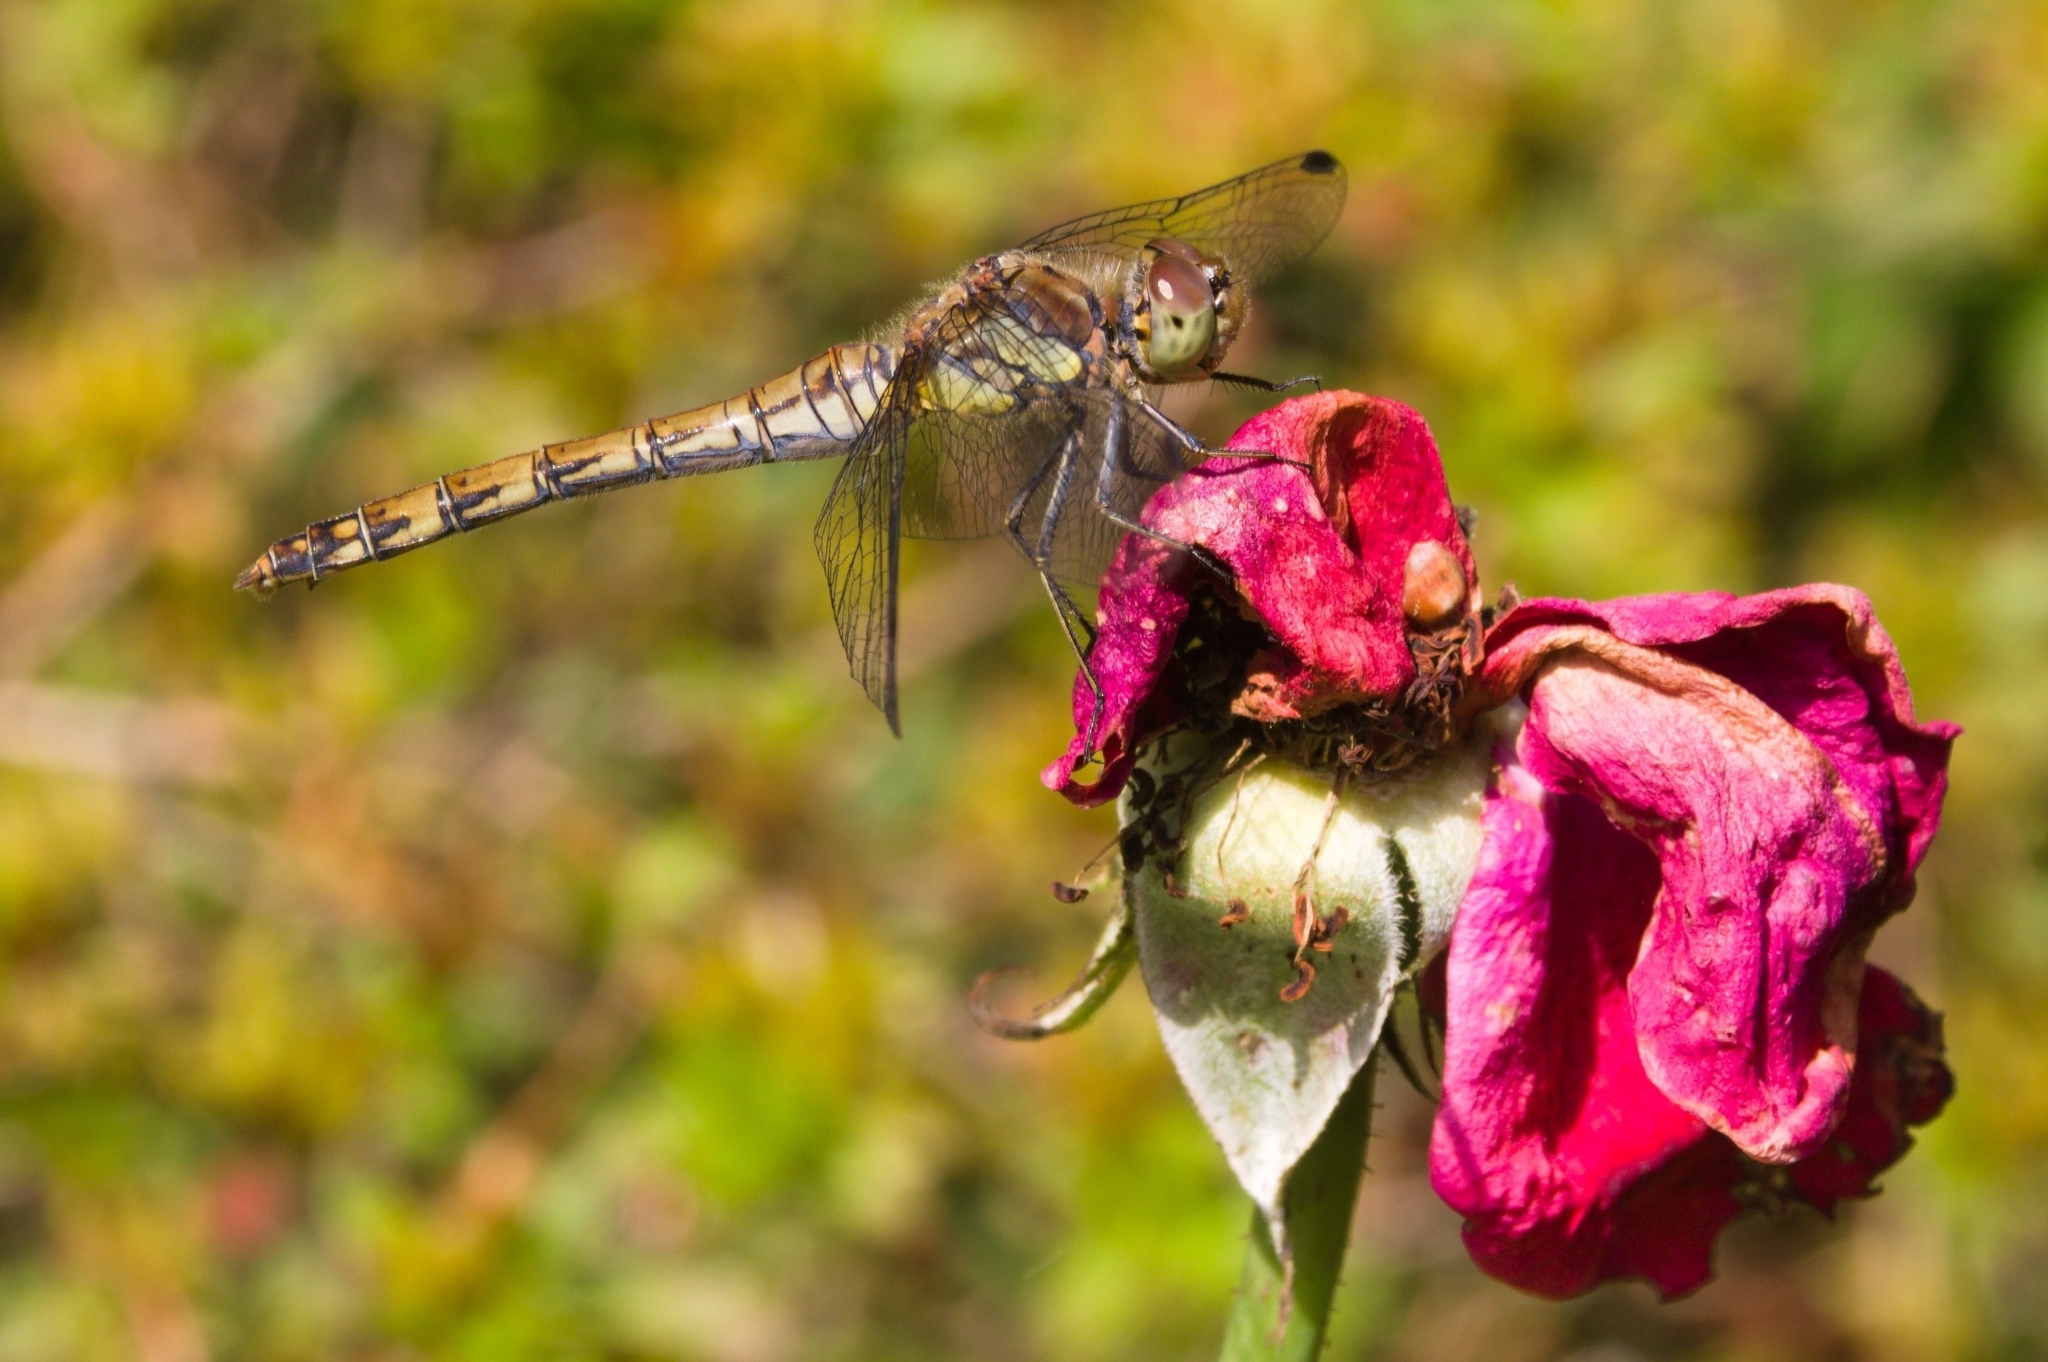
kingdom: Animalia
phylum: Arthropoda
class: Insecta
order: Odonata
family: Libellulidae
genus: Sympetrum
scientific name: Sympetrum striolatum
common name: Common darter
